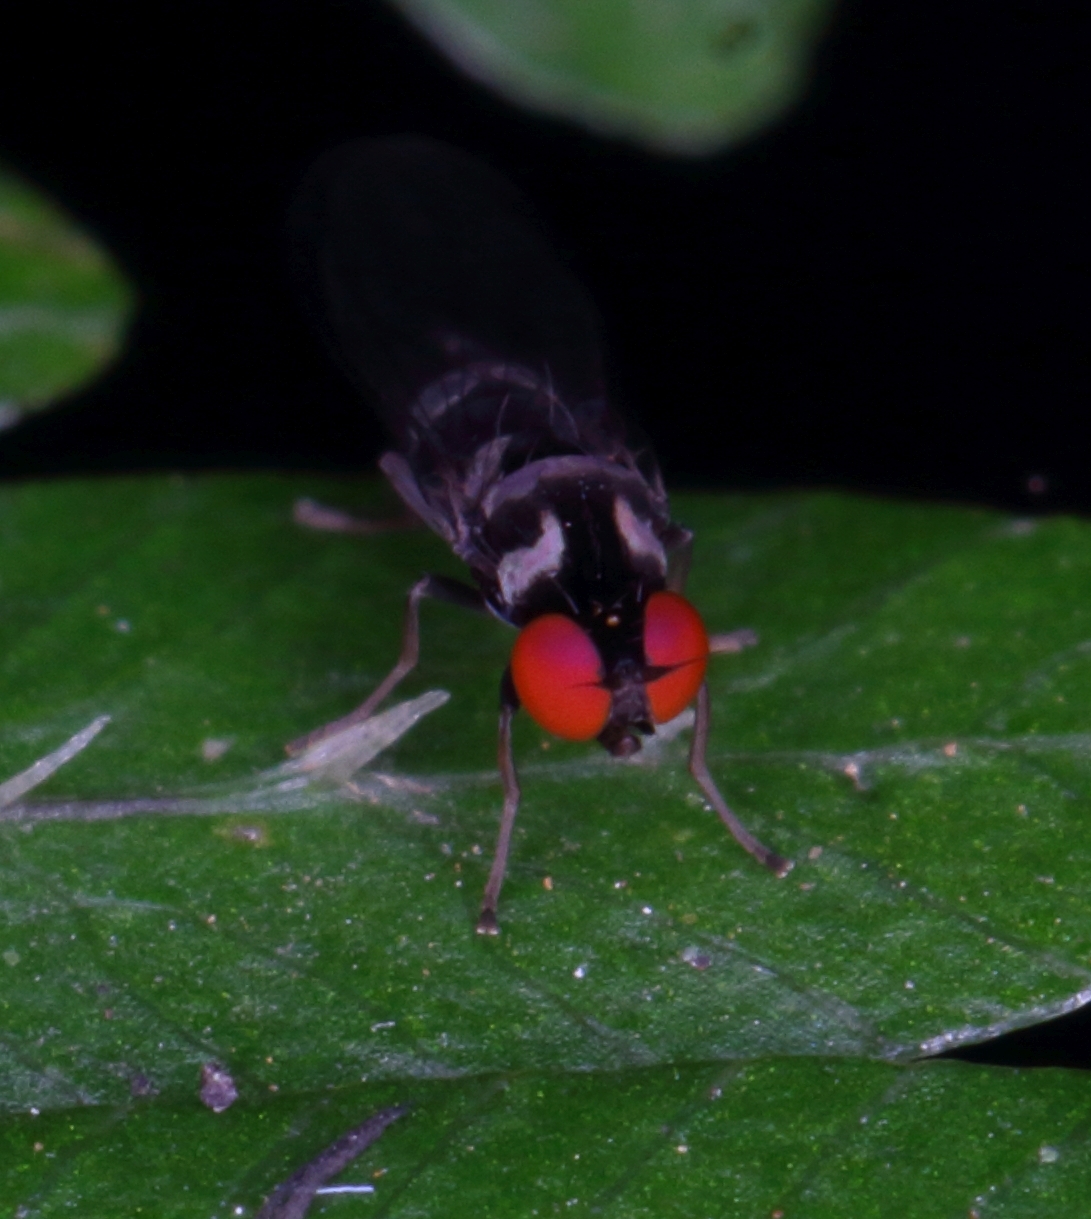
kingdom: Animalia
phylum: Arthropoda
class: Insecta
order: Diptera
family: Platypezidae
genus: Bertamyia
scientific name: Bertamyia
